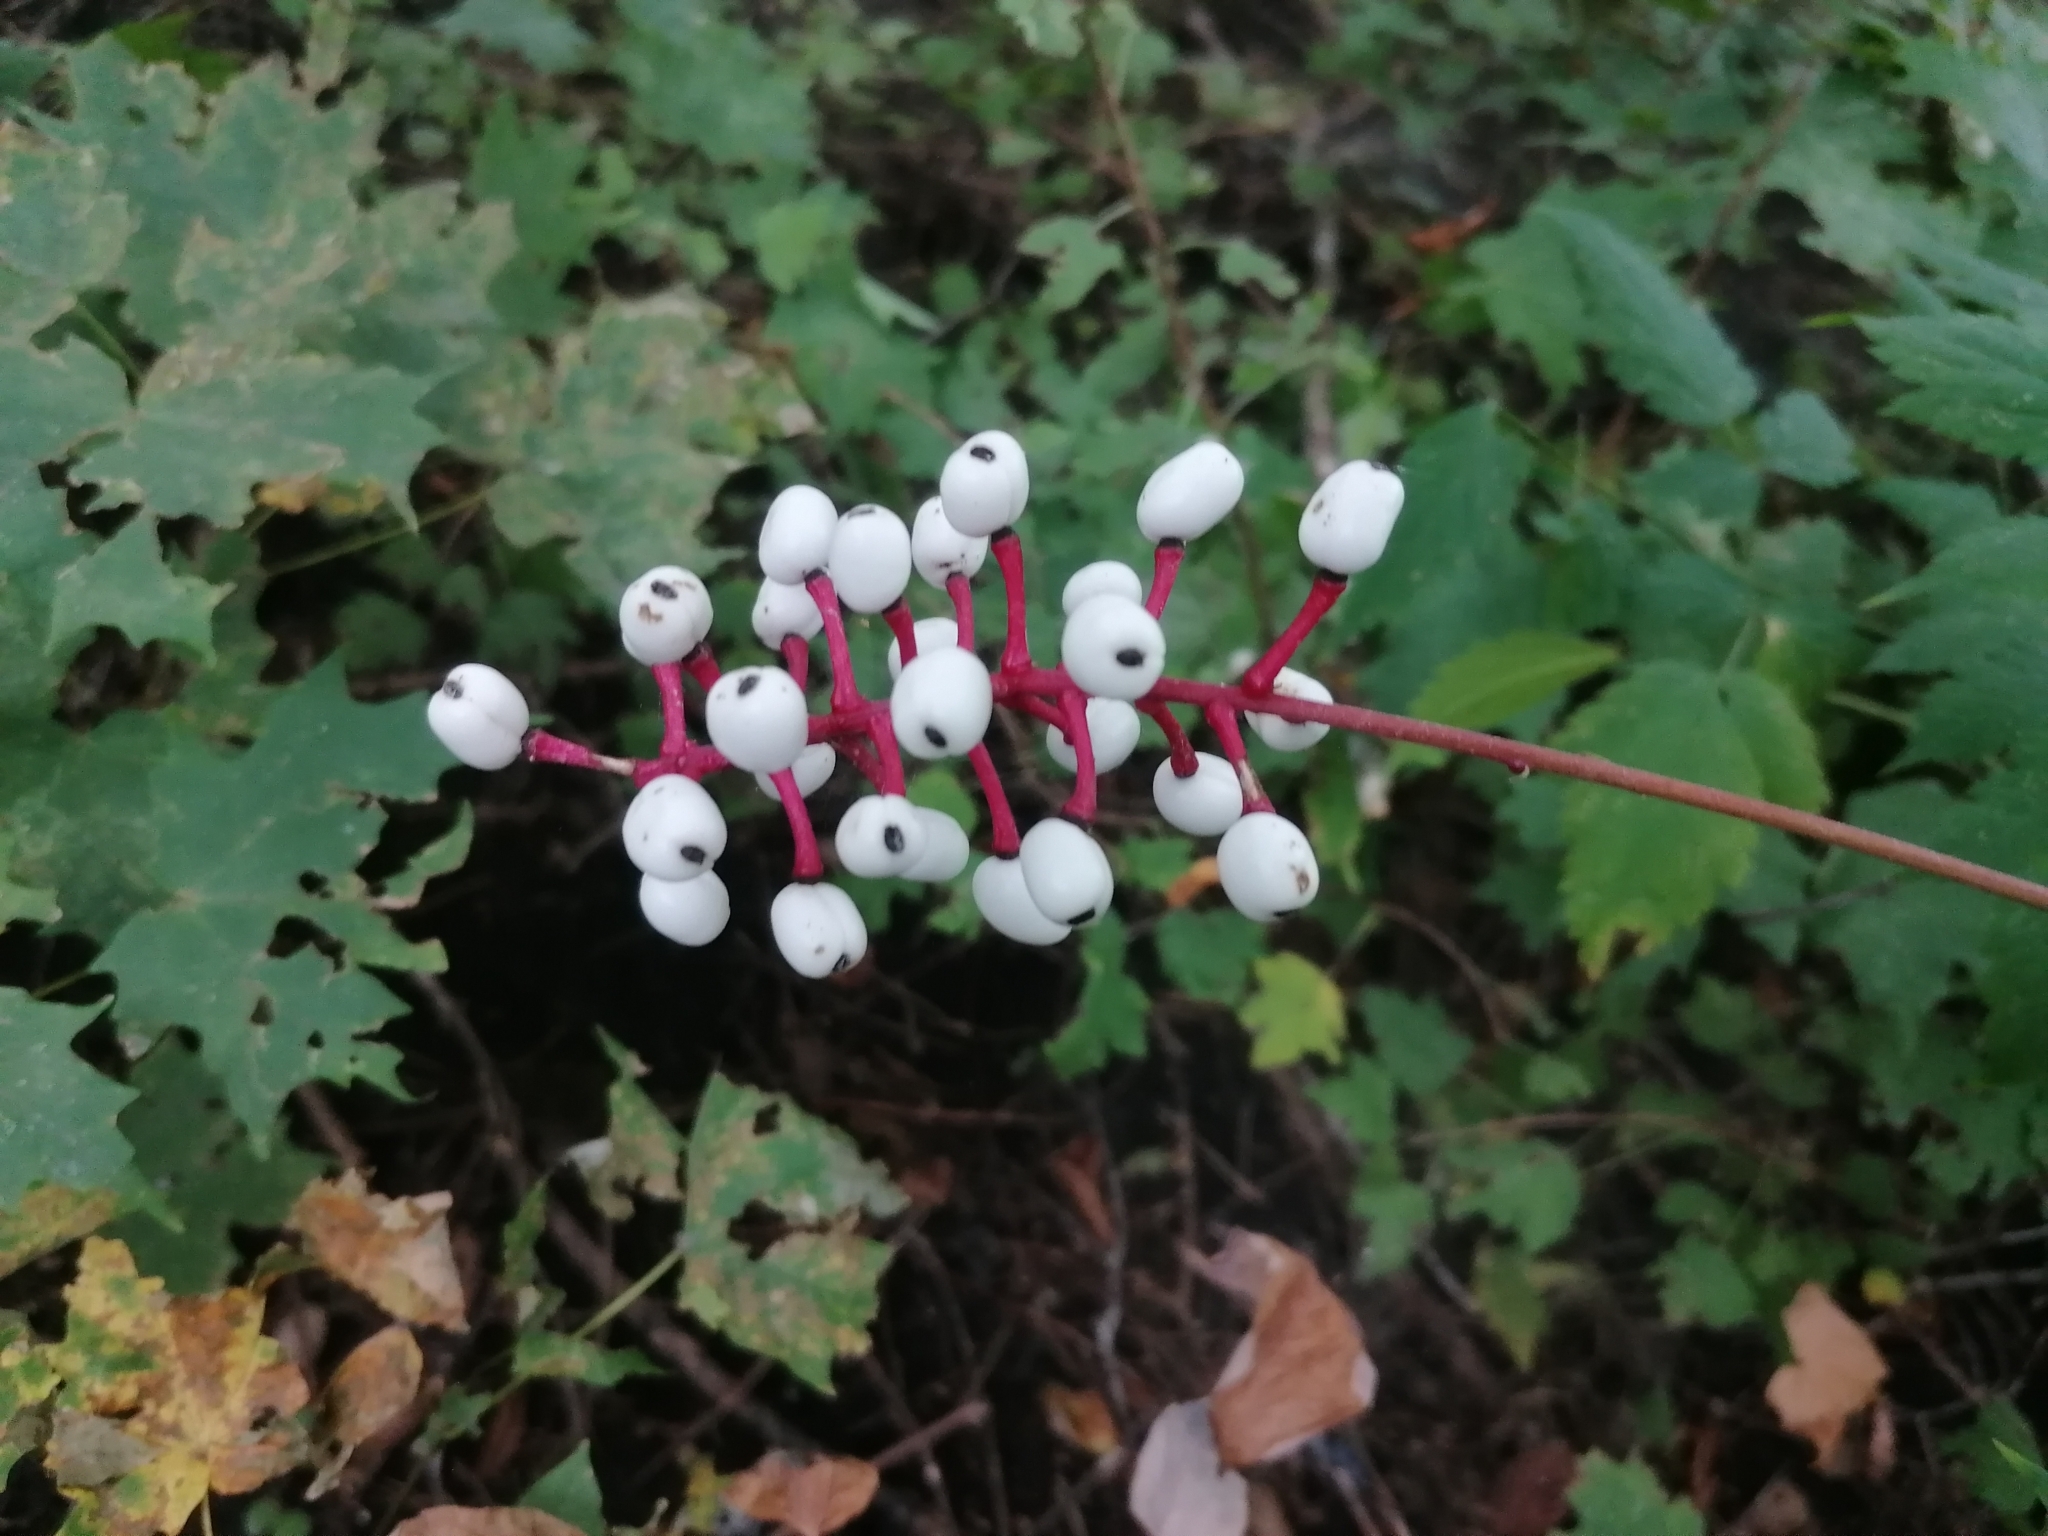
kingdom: Plantae
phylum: Tracheophyta
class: Magnoliopsida
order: Ranunculales
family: Ranunculaceae
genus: Actaea
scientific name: Actaea pachypoda
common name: Doll's-eyes
